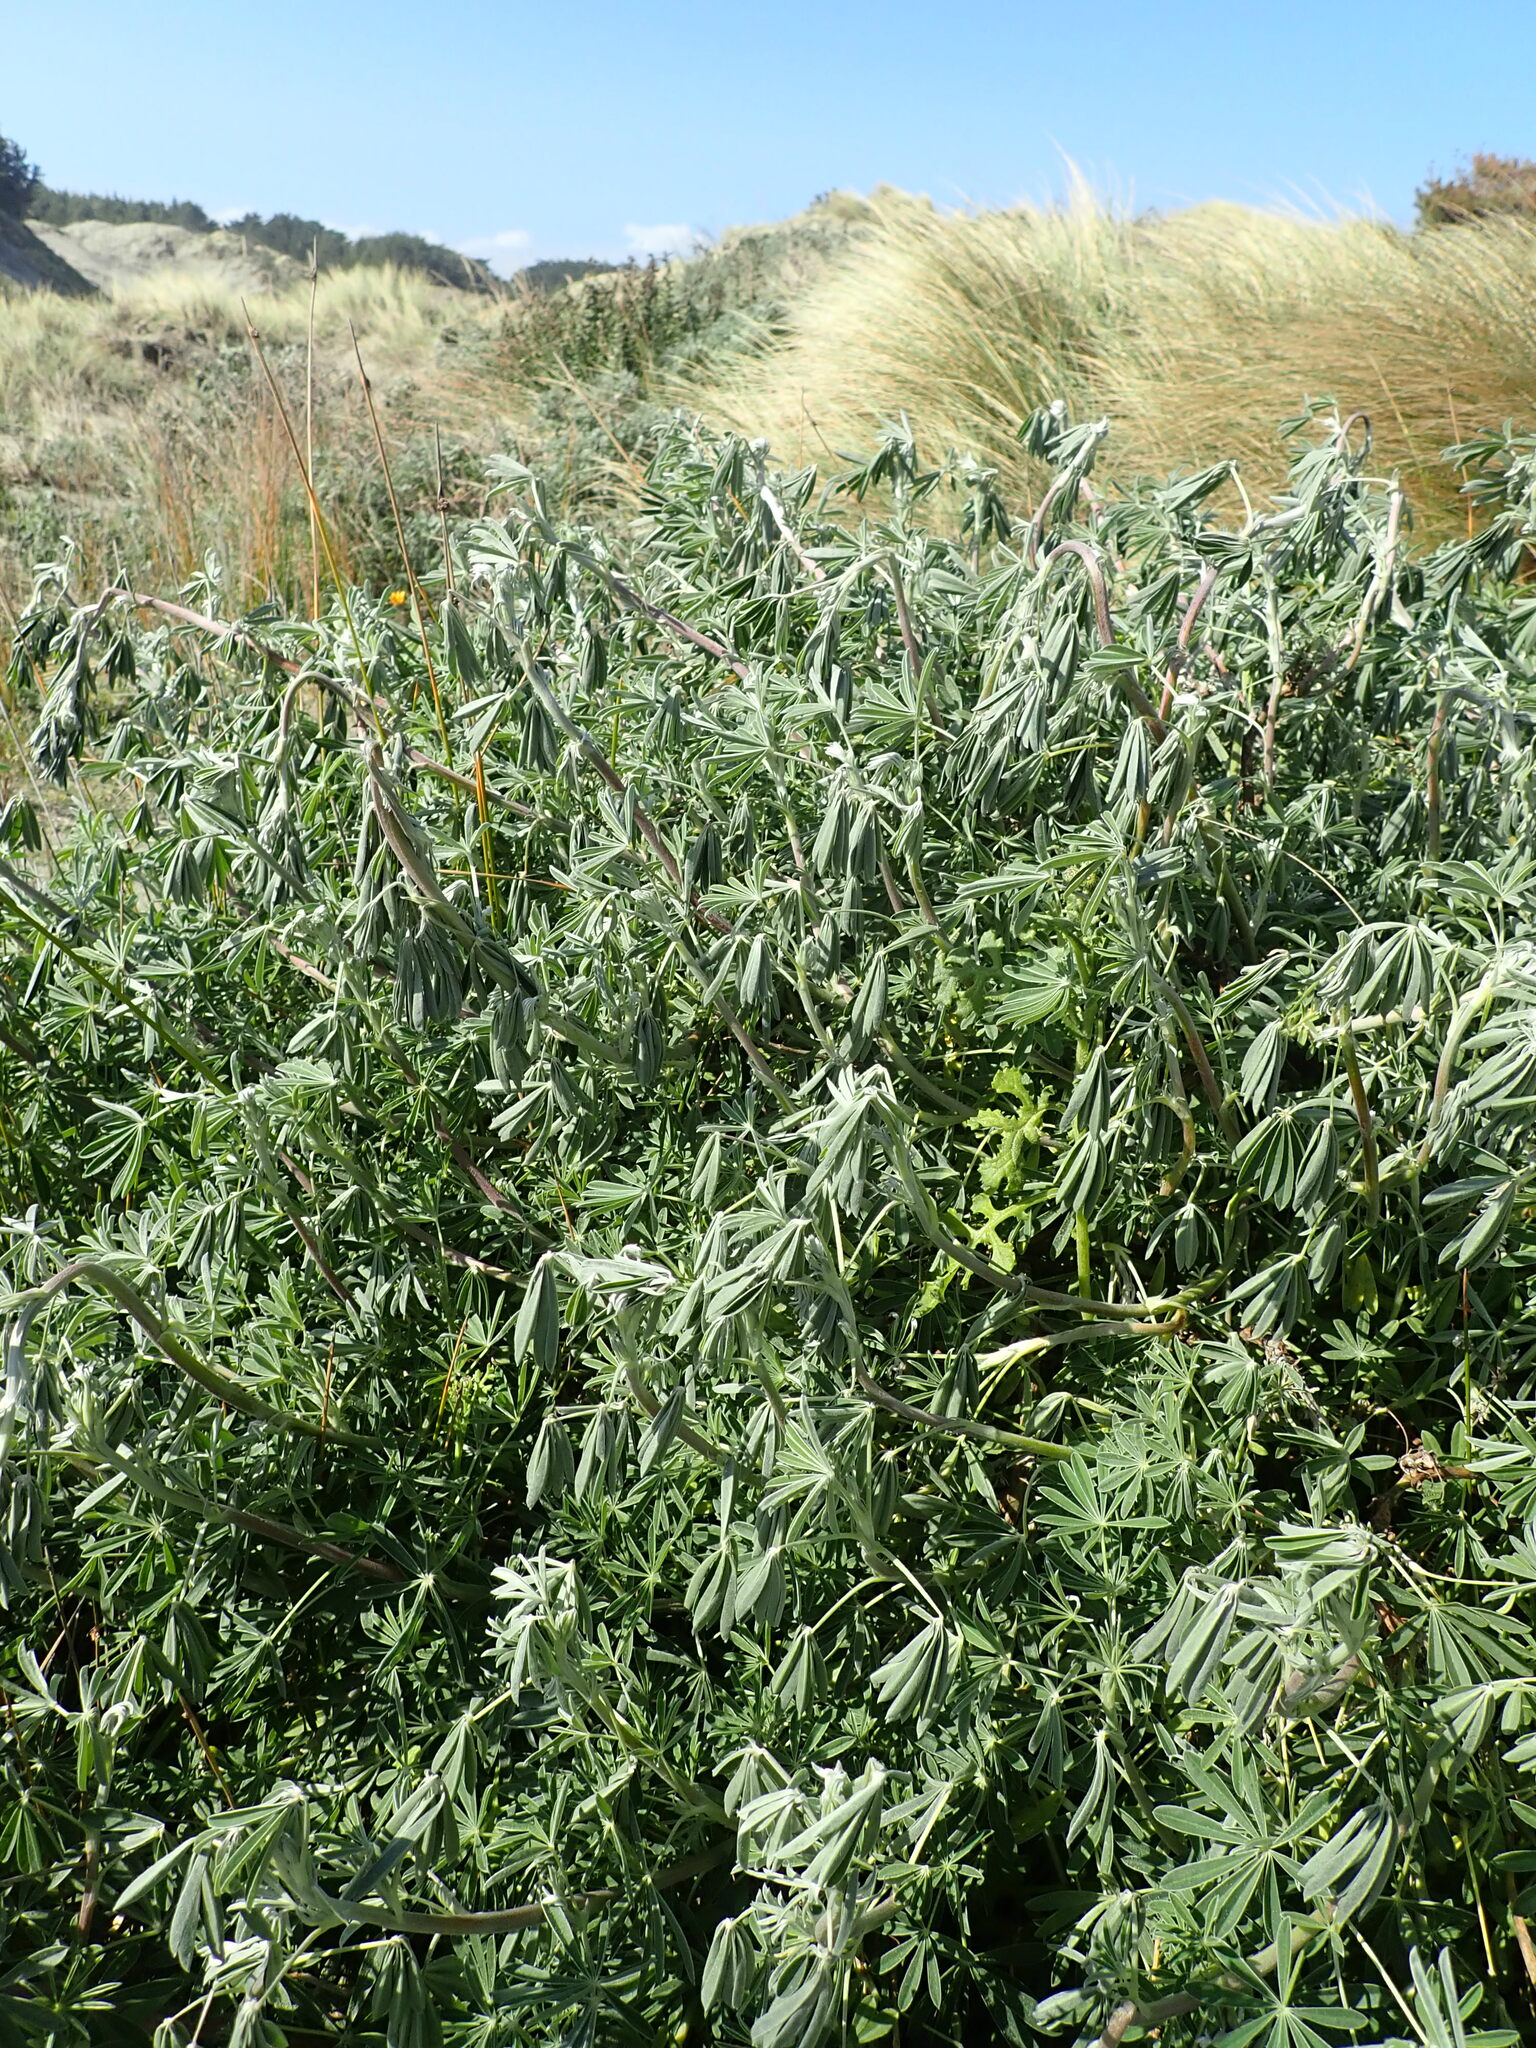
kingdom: Plantae
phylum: Tracheophyta
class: Magnoliopsida
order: Fabales
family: Fabaceae
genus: Lupinus
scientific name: Lupinus arboreus
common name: Yellow bush lupine
